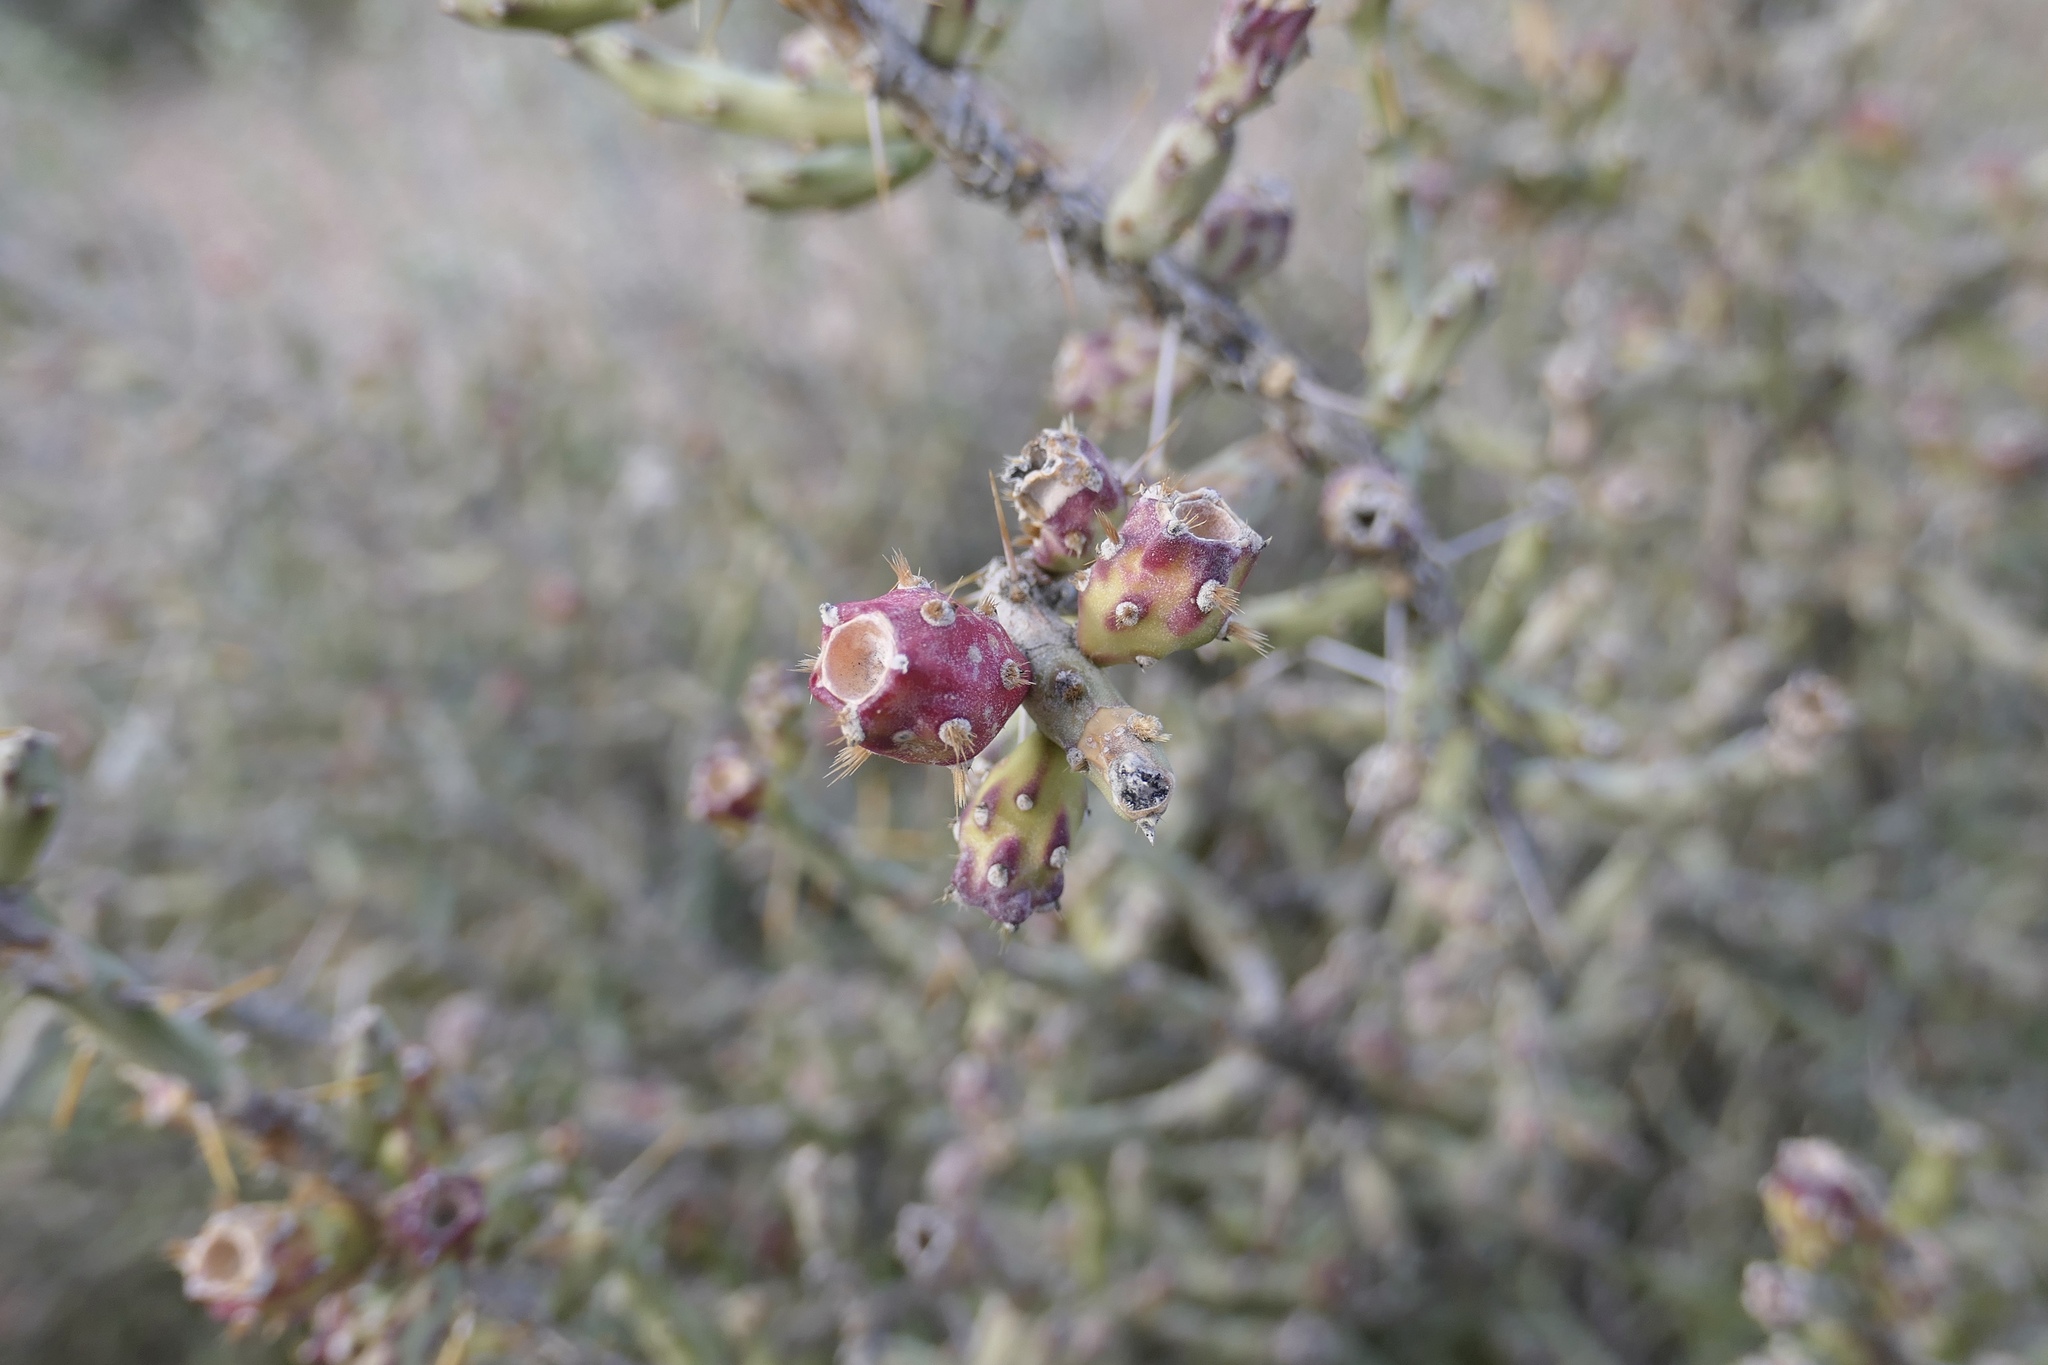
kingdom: Plantae
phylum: Tracheophyta
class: Magnoliopsida
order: Caryophyllales
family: Cactaceae
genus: Cylindropuntia
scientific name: Cylindropuntia leptocaulis
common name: Christmas cactus
